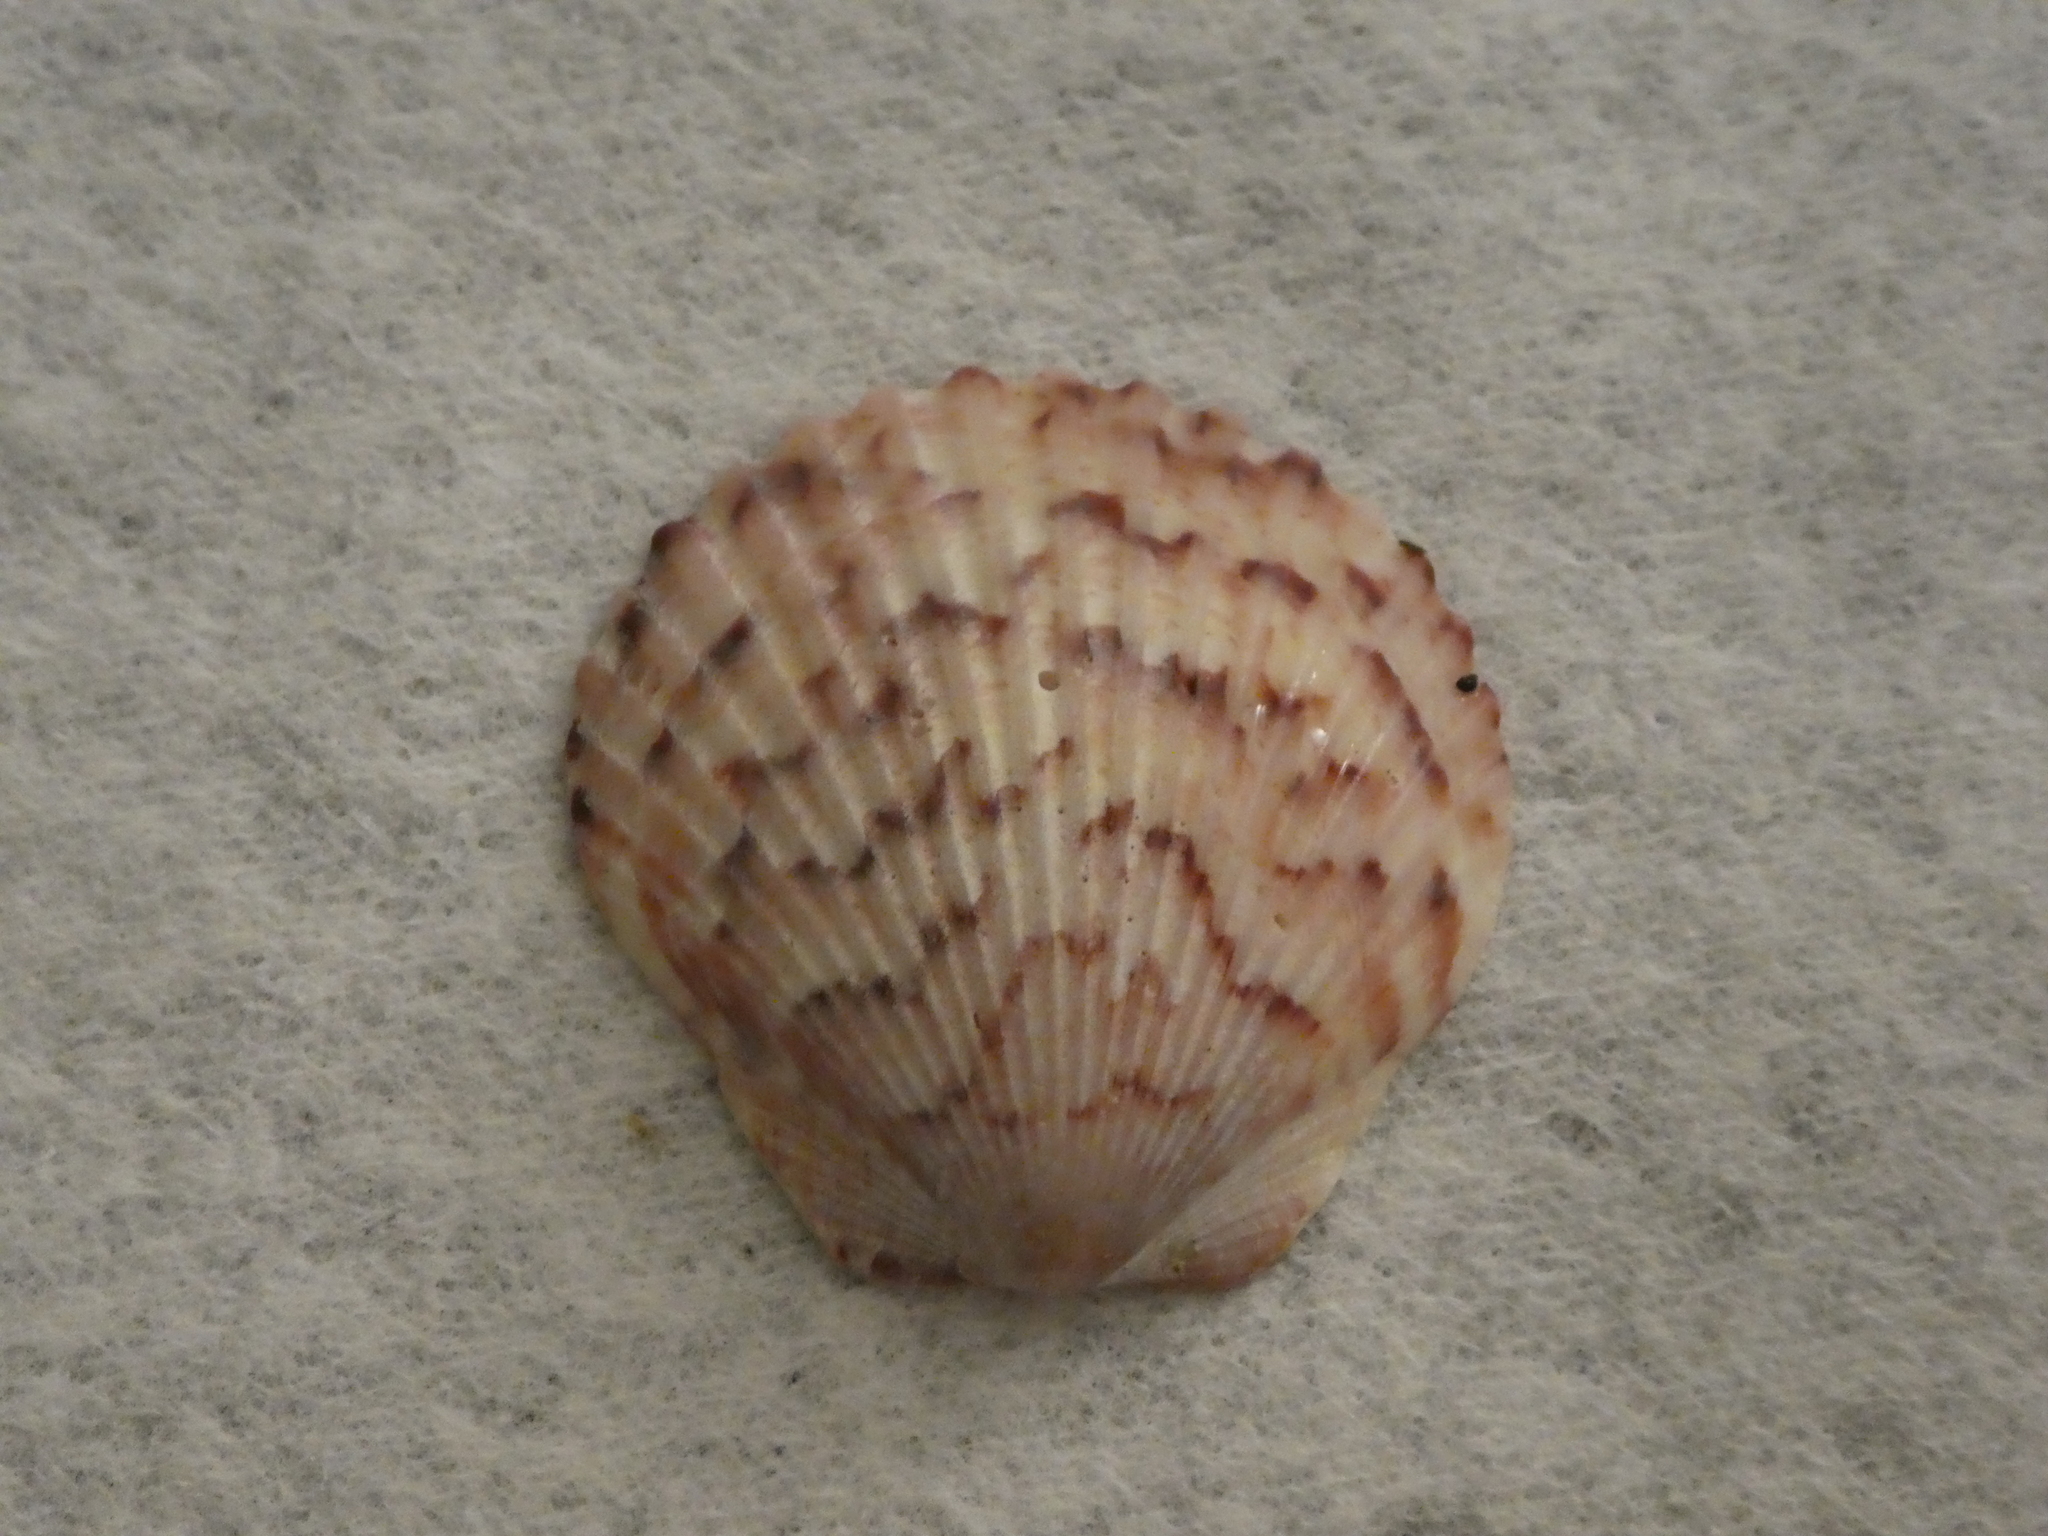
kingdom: Animalia
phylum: Mollusca
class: Bivalvia
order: Pectinida
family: Pectinidae
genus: Argopecten
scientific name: Argopecten ventricosus
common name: Catarina scallop
